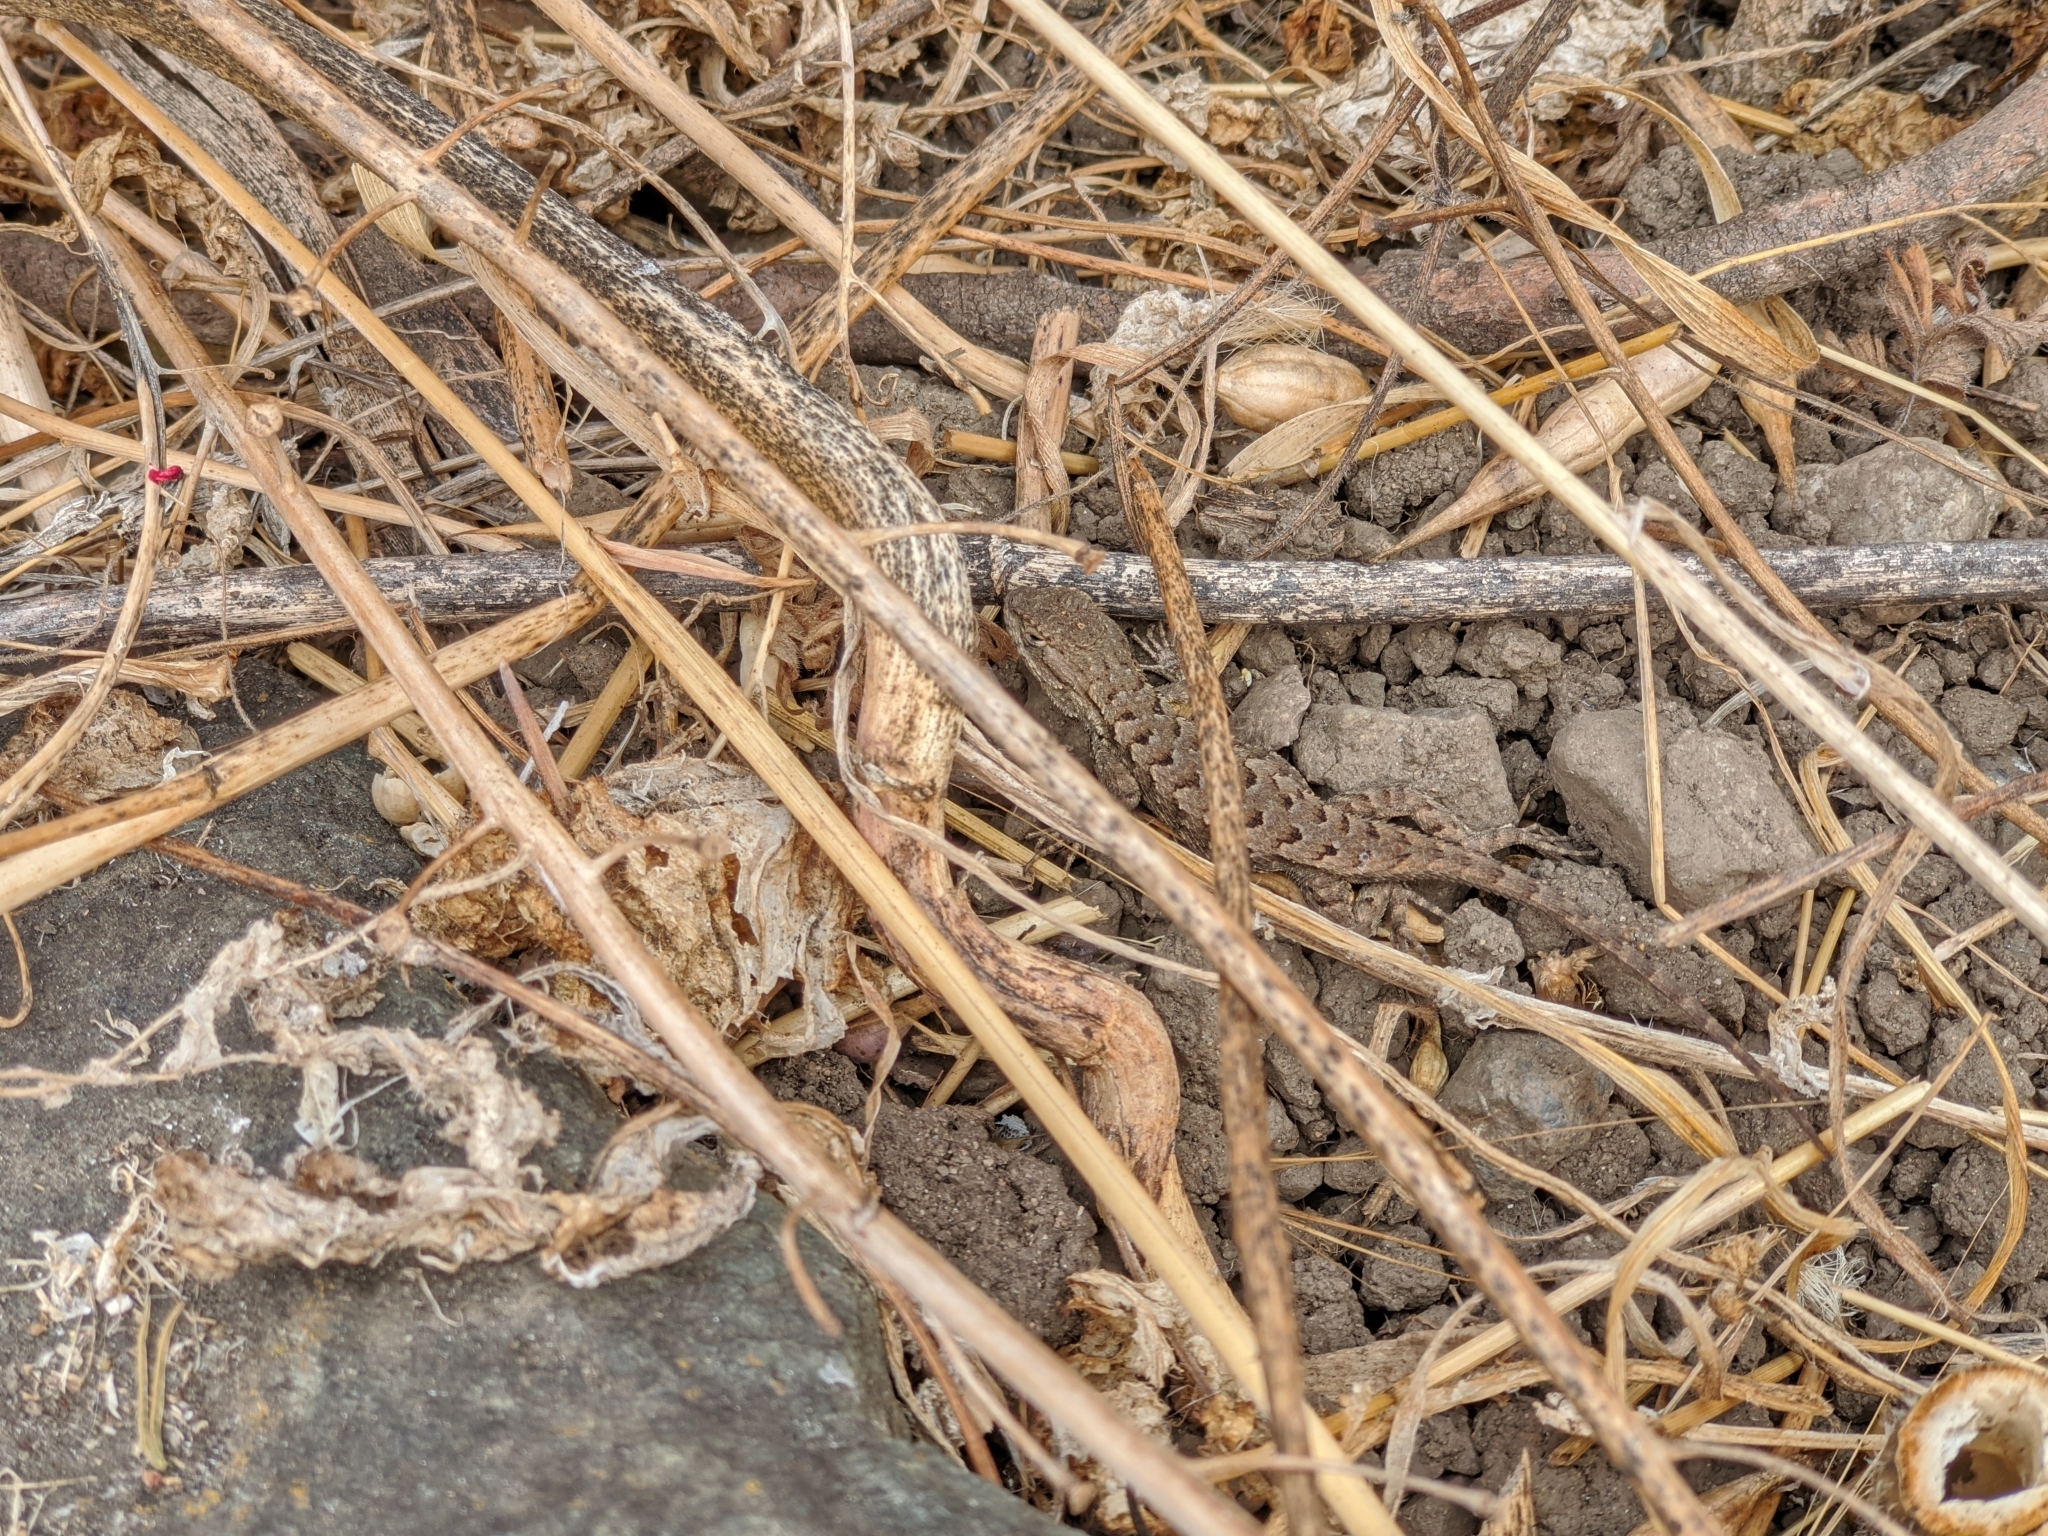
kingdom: Animalia
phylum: Chordata
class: Squamata
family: Phrynosomatidae
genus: Sceloporus
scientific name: Sceloporus occidentalis
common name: Western fence lizard
